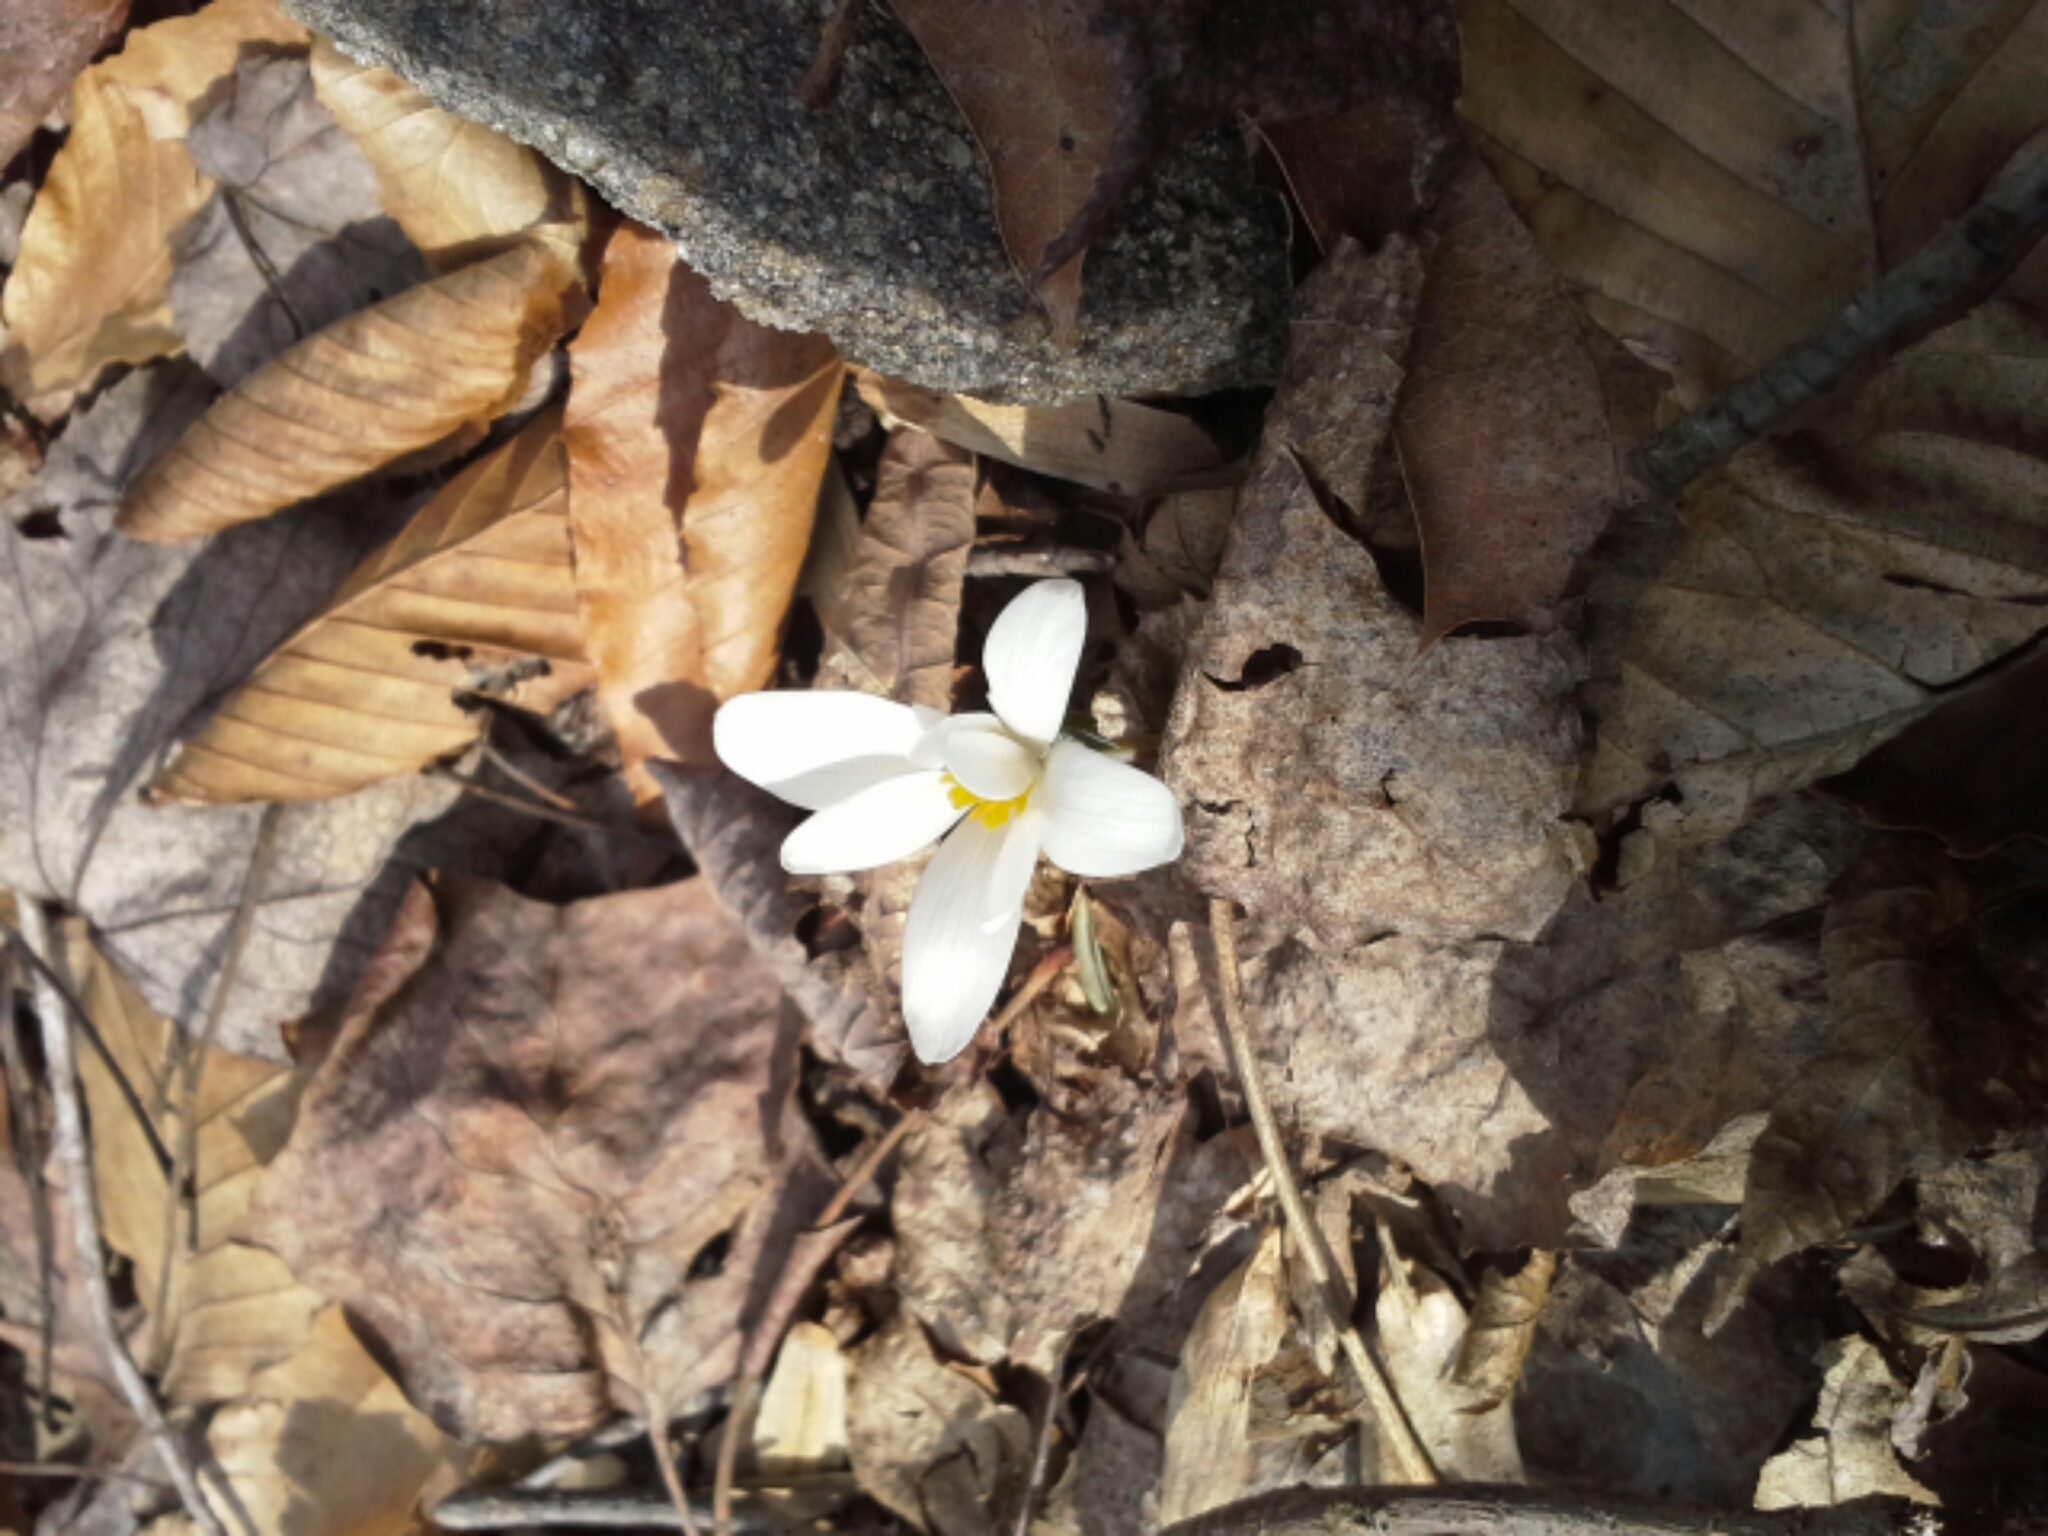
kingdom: Plantae
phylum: Tracheophyta
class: Magnoliopsida
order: Ranunculales
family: Papaveraceae
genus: Sanguinaria
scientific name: Sanguinaria canadensis
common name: Bloodroot
